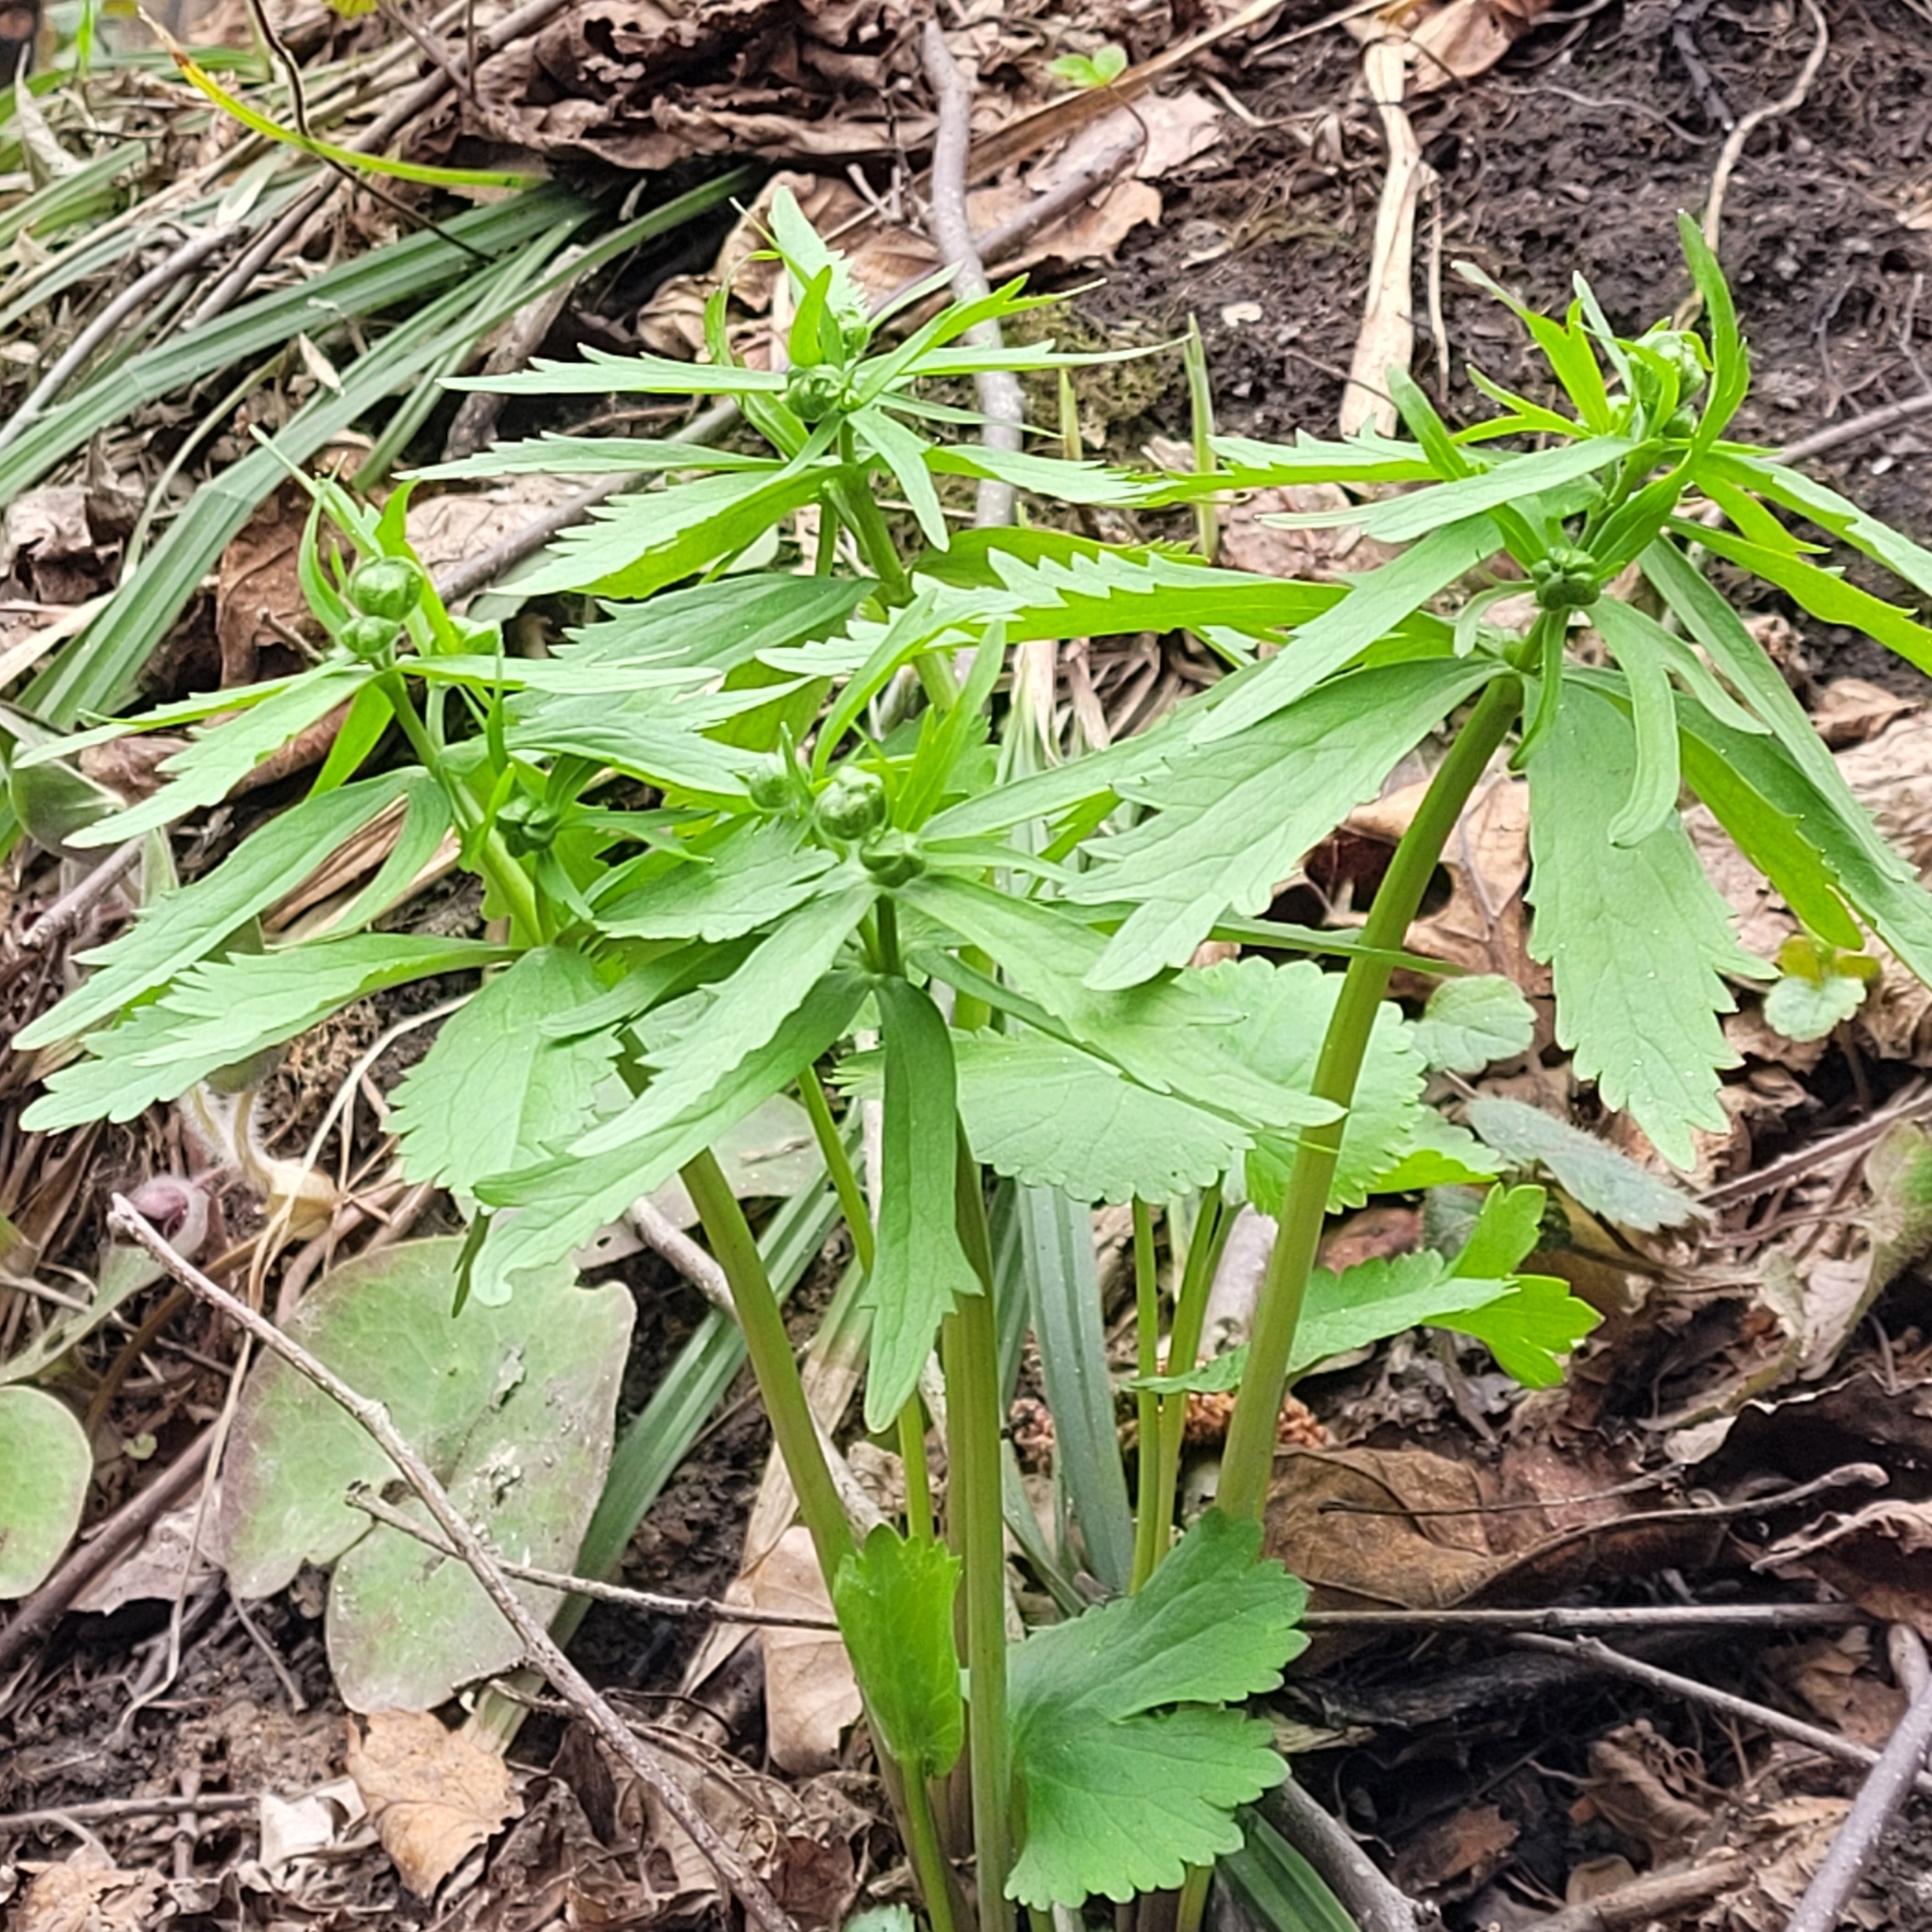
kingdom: Plantae
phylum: Tracheophyta
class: Magnoliopsida
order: Ranunculales
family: Ranunculaceae
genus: Ranunculus
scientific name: Ranunculus cassubicus
